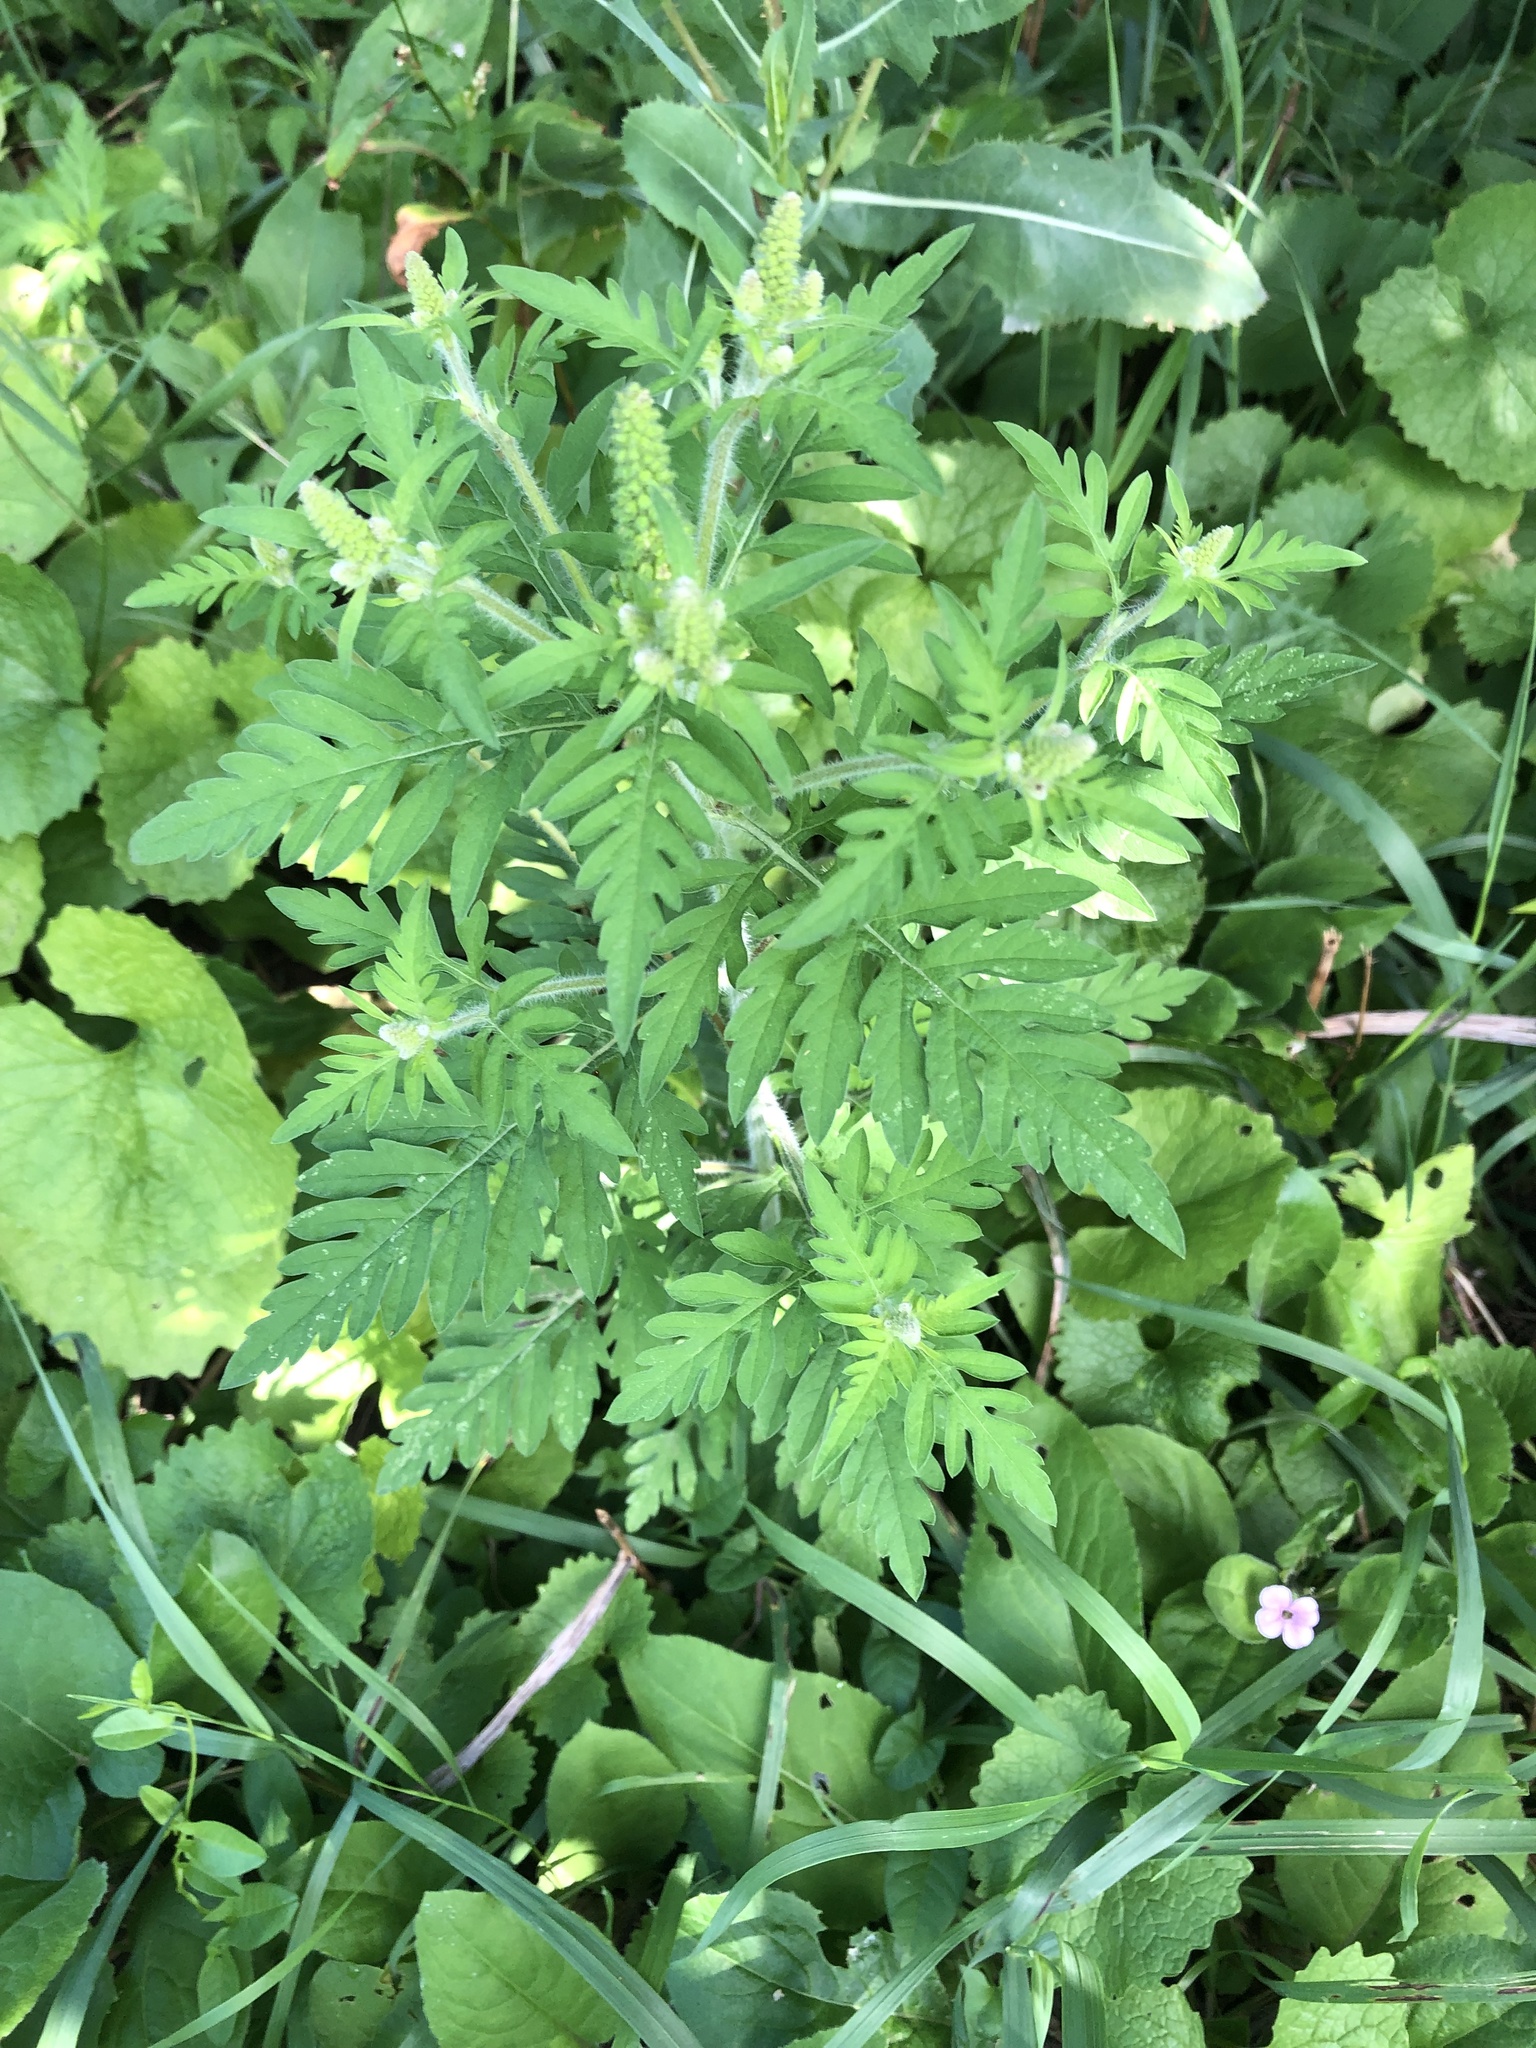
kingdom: Plantae
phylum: Tracheophyta
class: Magnoliopsida
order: Asterales
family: Asteraceae
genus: Ambrosia
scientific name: Ambrosia artemisiifolia
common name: Annual ragweed
